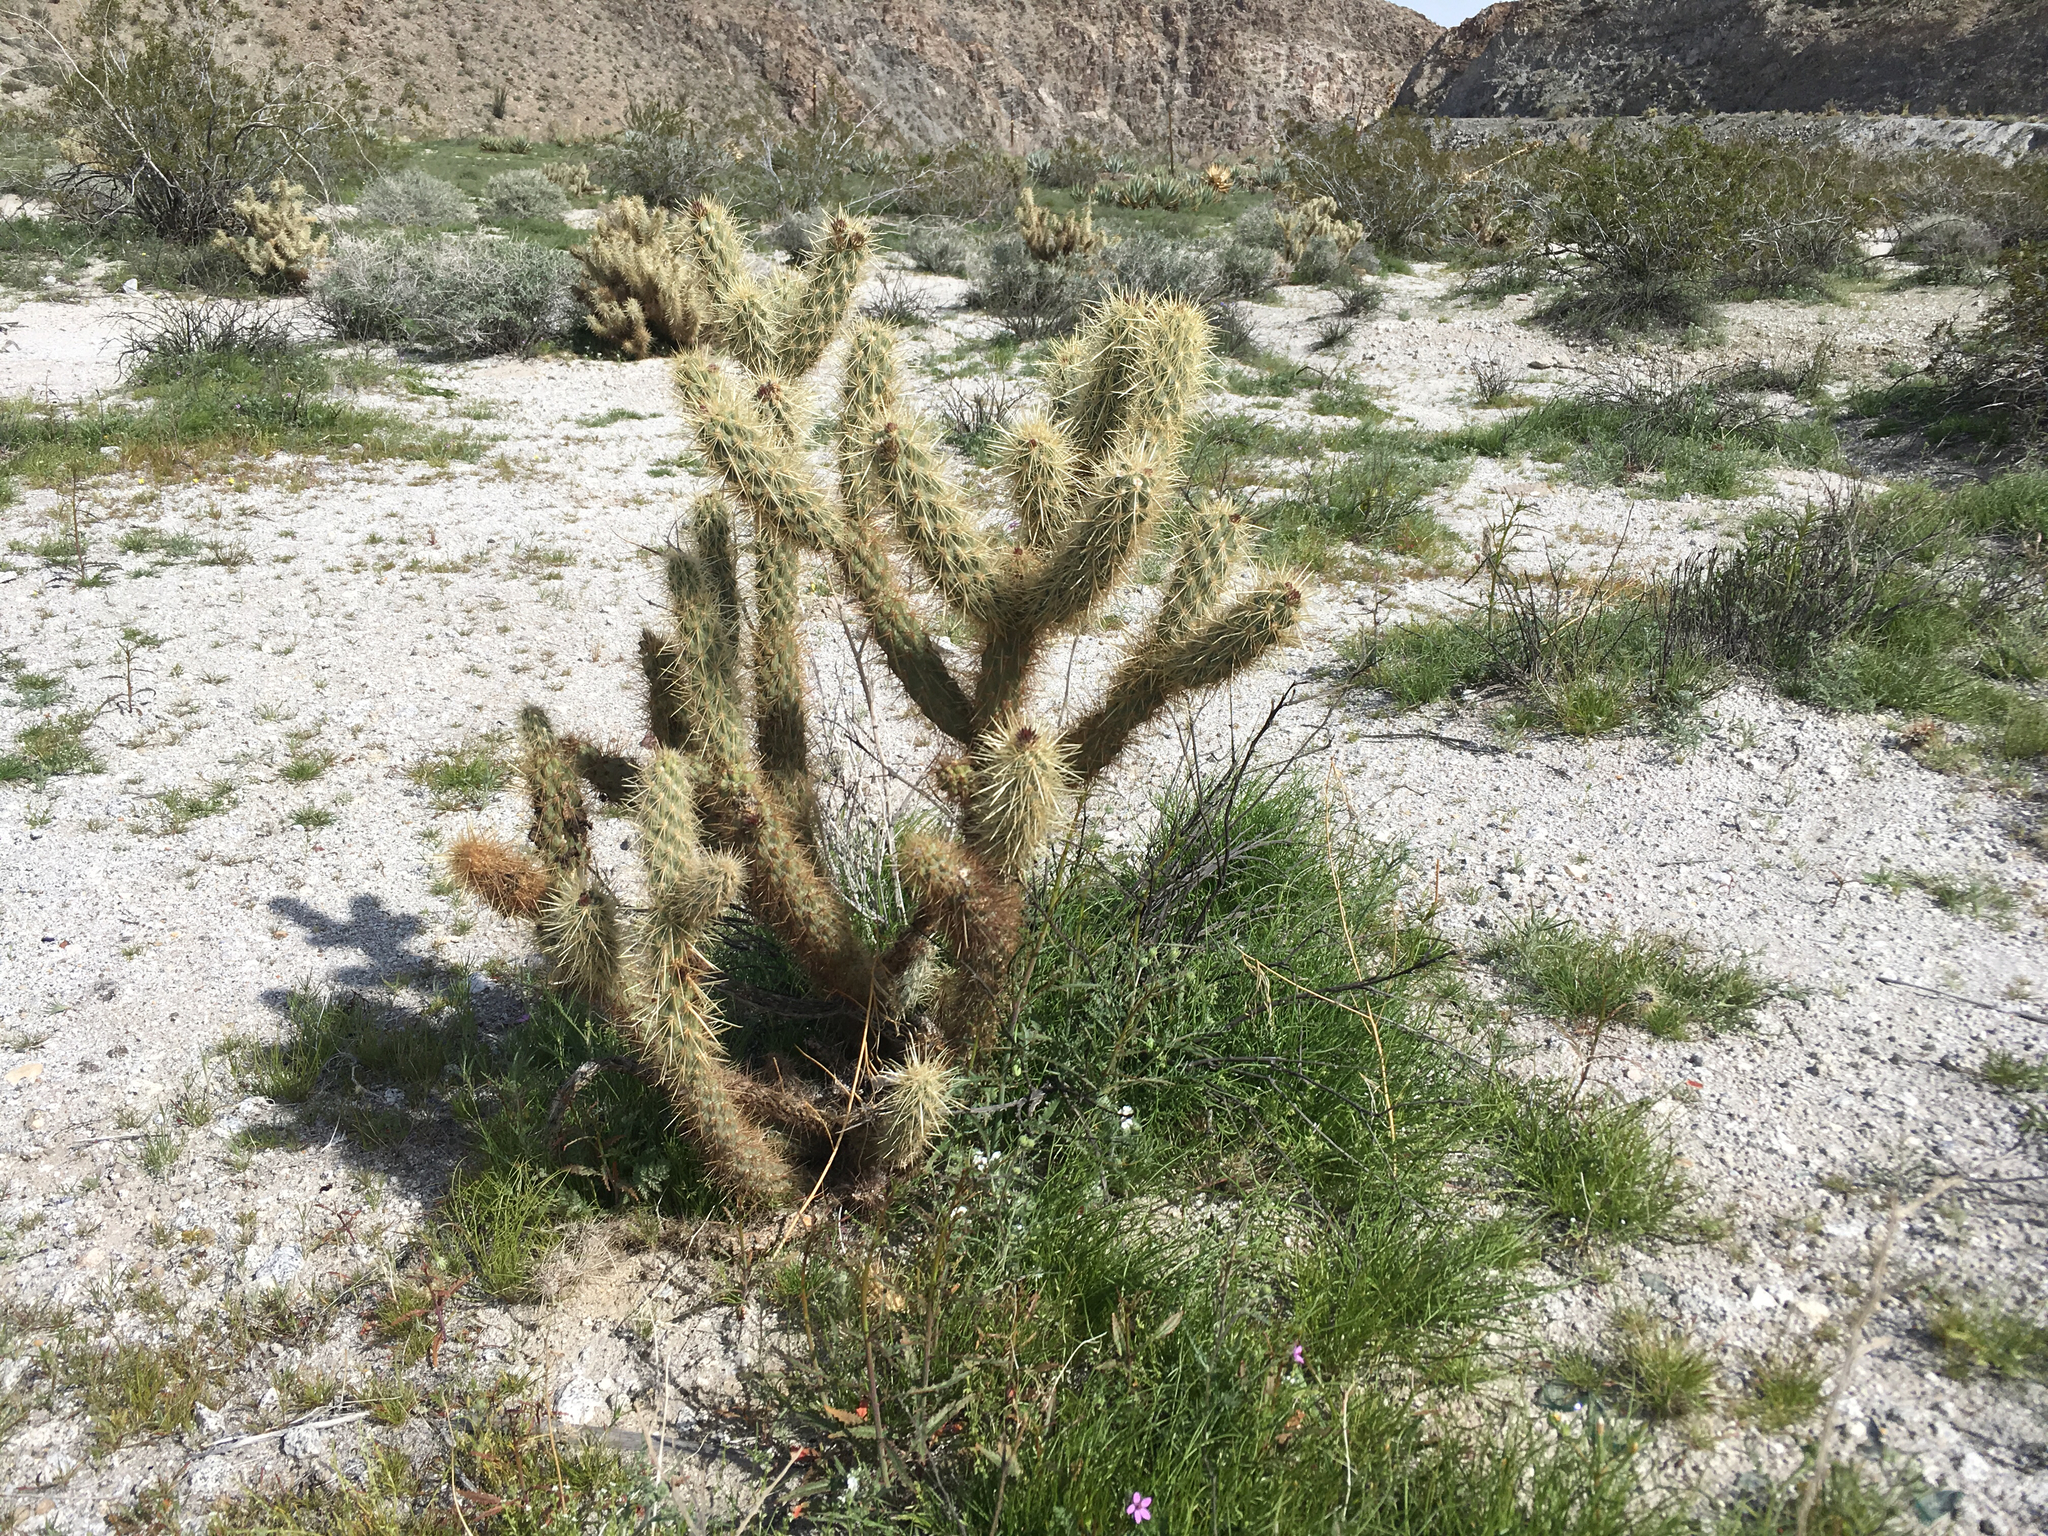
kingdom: Plantae
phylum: Tracheophyta
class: Magnoliopsida
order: Caryophyllales
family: Cactaceae
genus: Cylindropuntia
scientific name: Cylindropuntia ganderi
